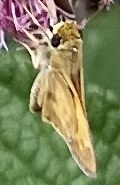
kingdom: Animalia
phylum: Arthropoda
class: Insecta
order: Lepidoptera
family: Hesperiidae
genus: Atalopedes
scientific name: Atalopedes
